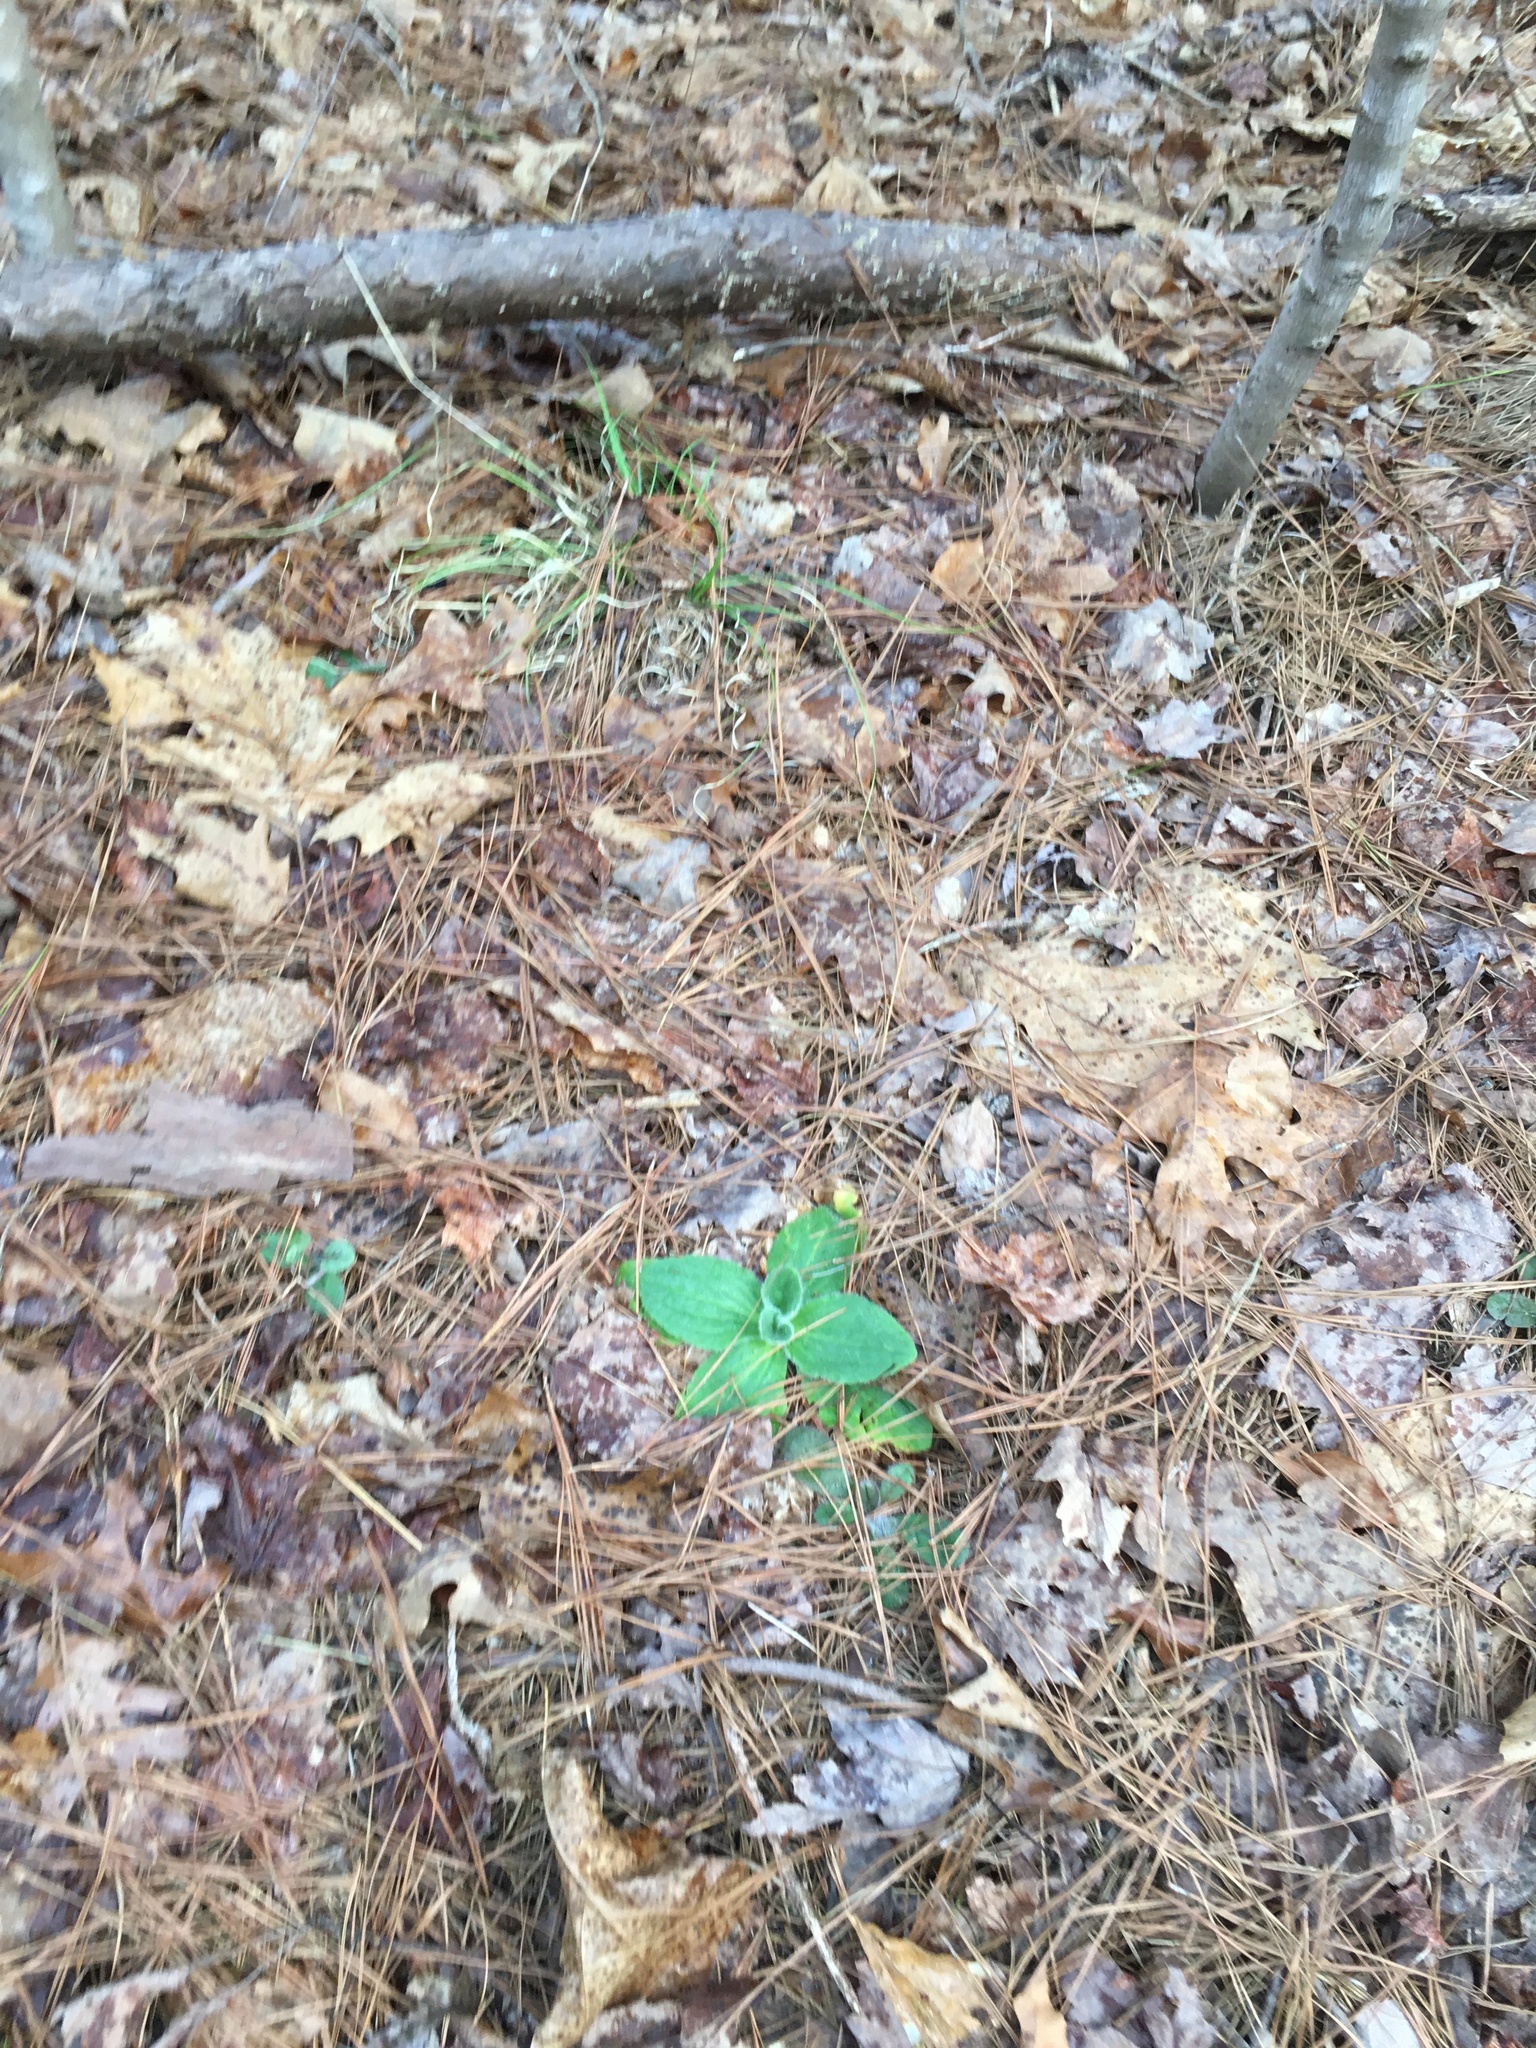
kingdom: Plantae
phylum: Tracheophyta
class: Magnoliopsida
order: Asterales
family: Asteraceae
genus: Arnica
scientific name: Arnica acaulis
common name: Common leopardbane
